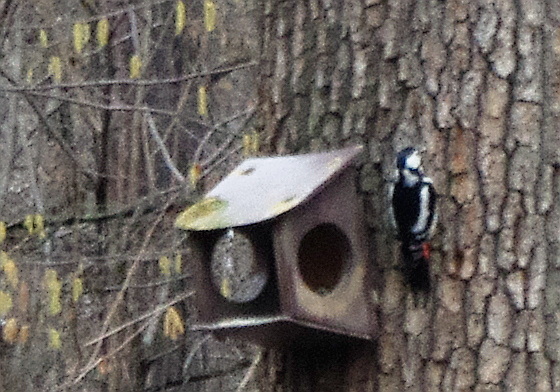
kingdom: Animalia
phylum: Chordata
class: Aves
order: Piciformes
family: Picidae
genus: Dendrocopos
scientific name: Dendrocopos major
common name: Great spotted woodpecker
